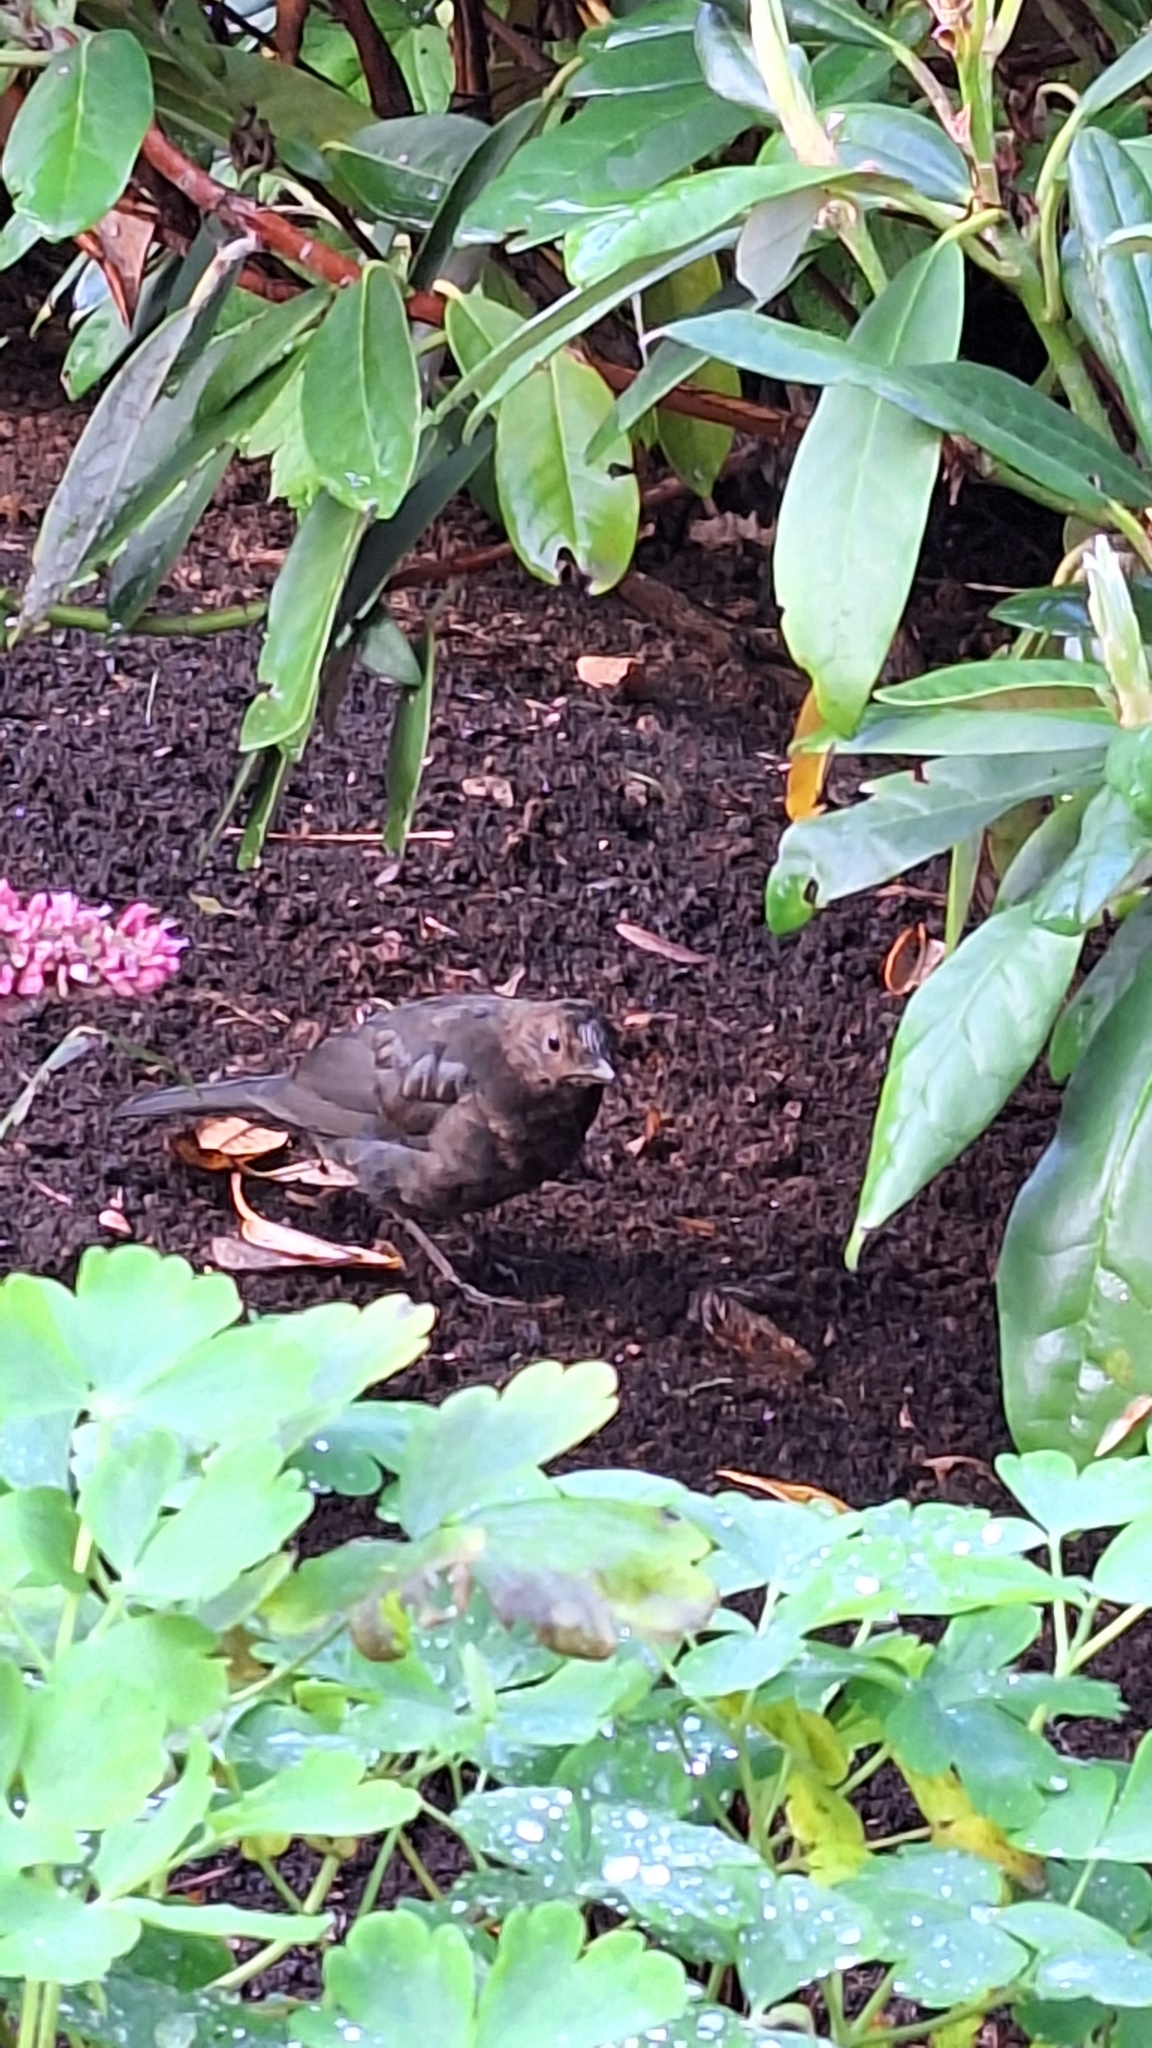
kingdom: Animalia
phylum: Chordata
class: Aves
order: Passeriformes
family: Turdidae
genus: Turdus
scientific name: Turdus merula
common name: Common blackbird
